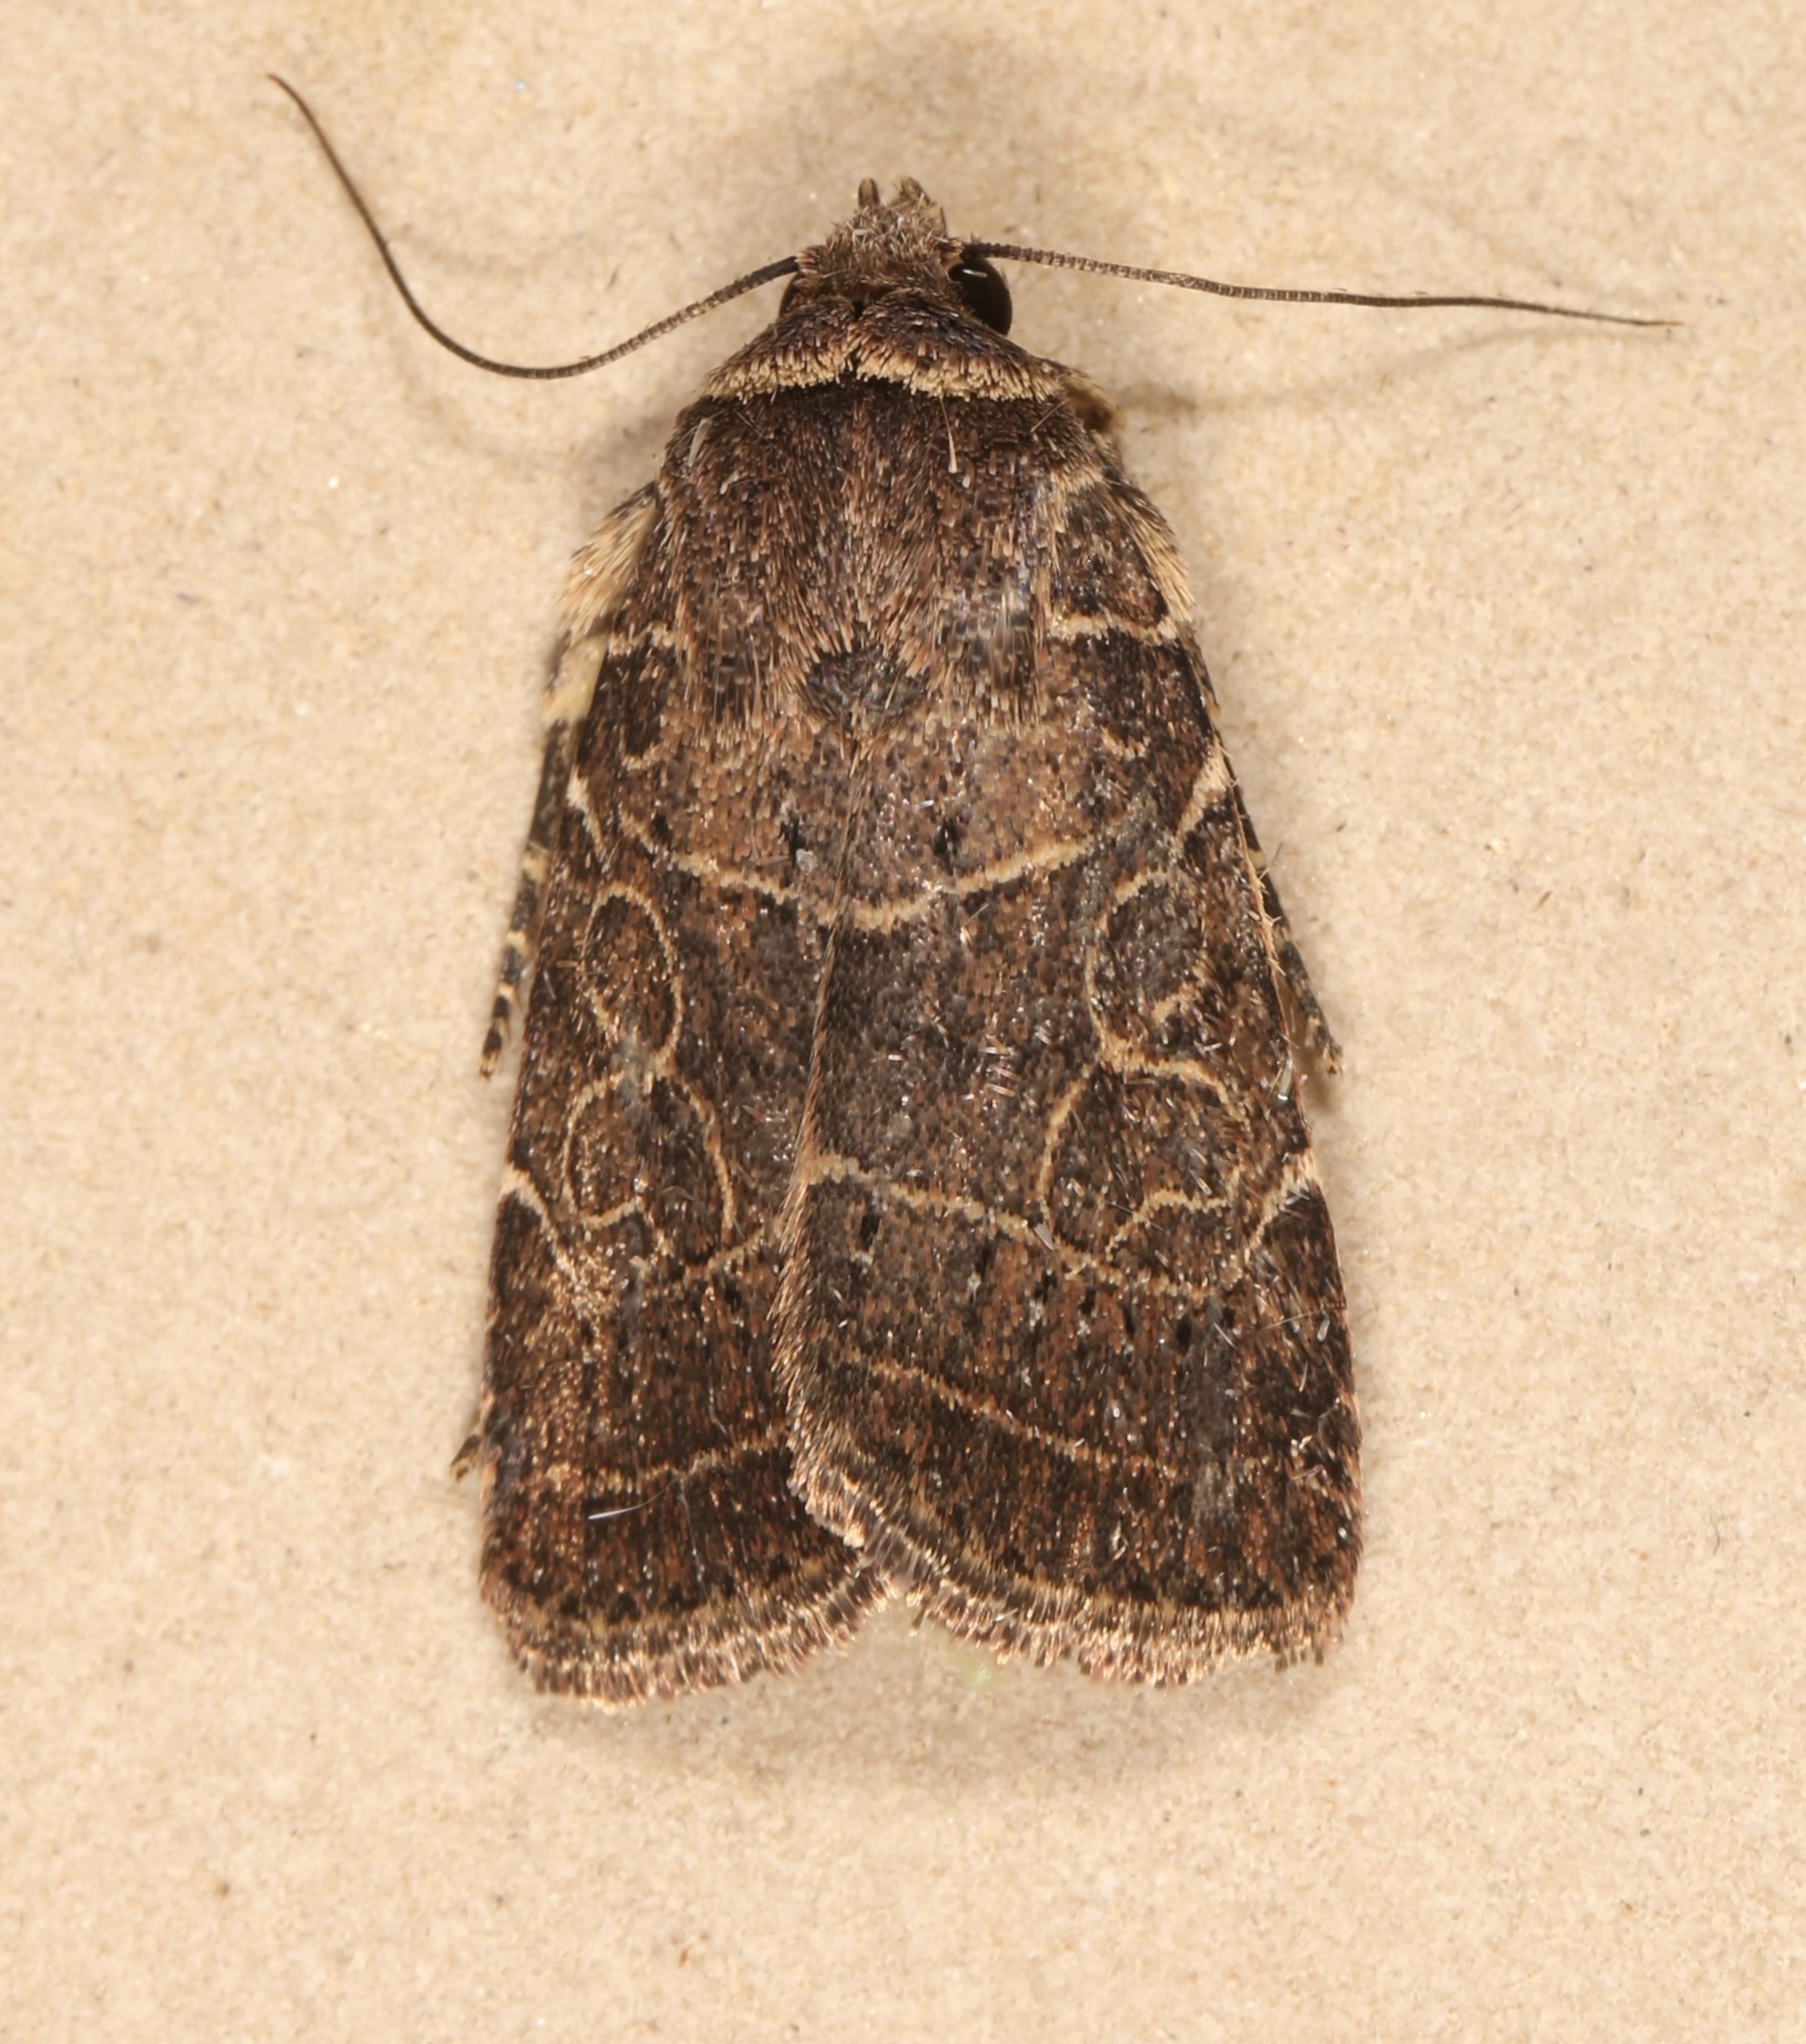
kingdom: Animalia
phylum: Arthropoda
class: Insecta
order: Lepidoptera
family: Noctuidae
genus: Orthodes
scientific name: Orthodes majuscula
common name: Rustic quaker
